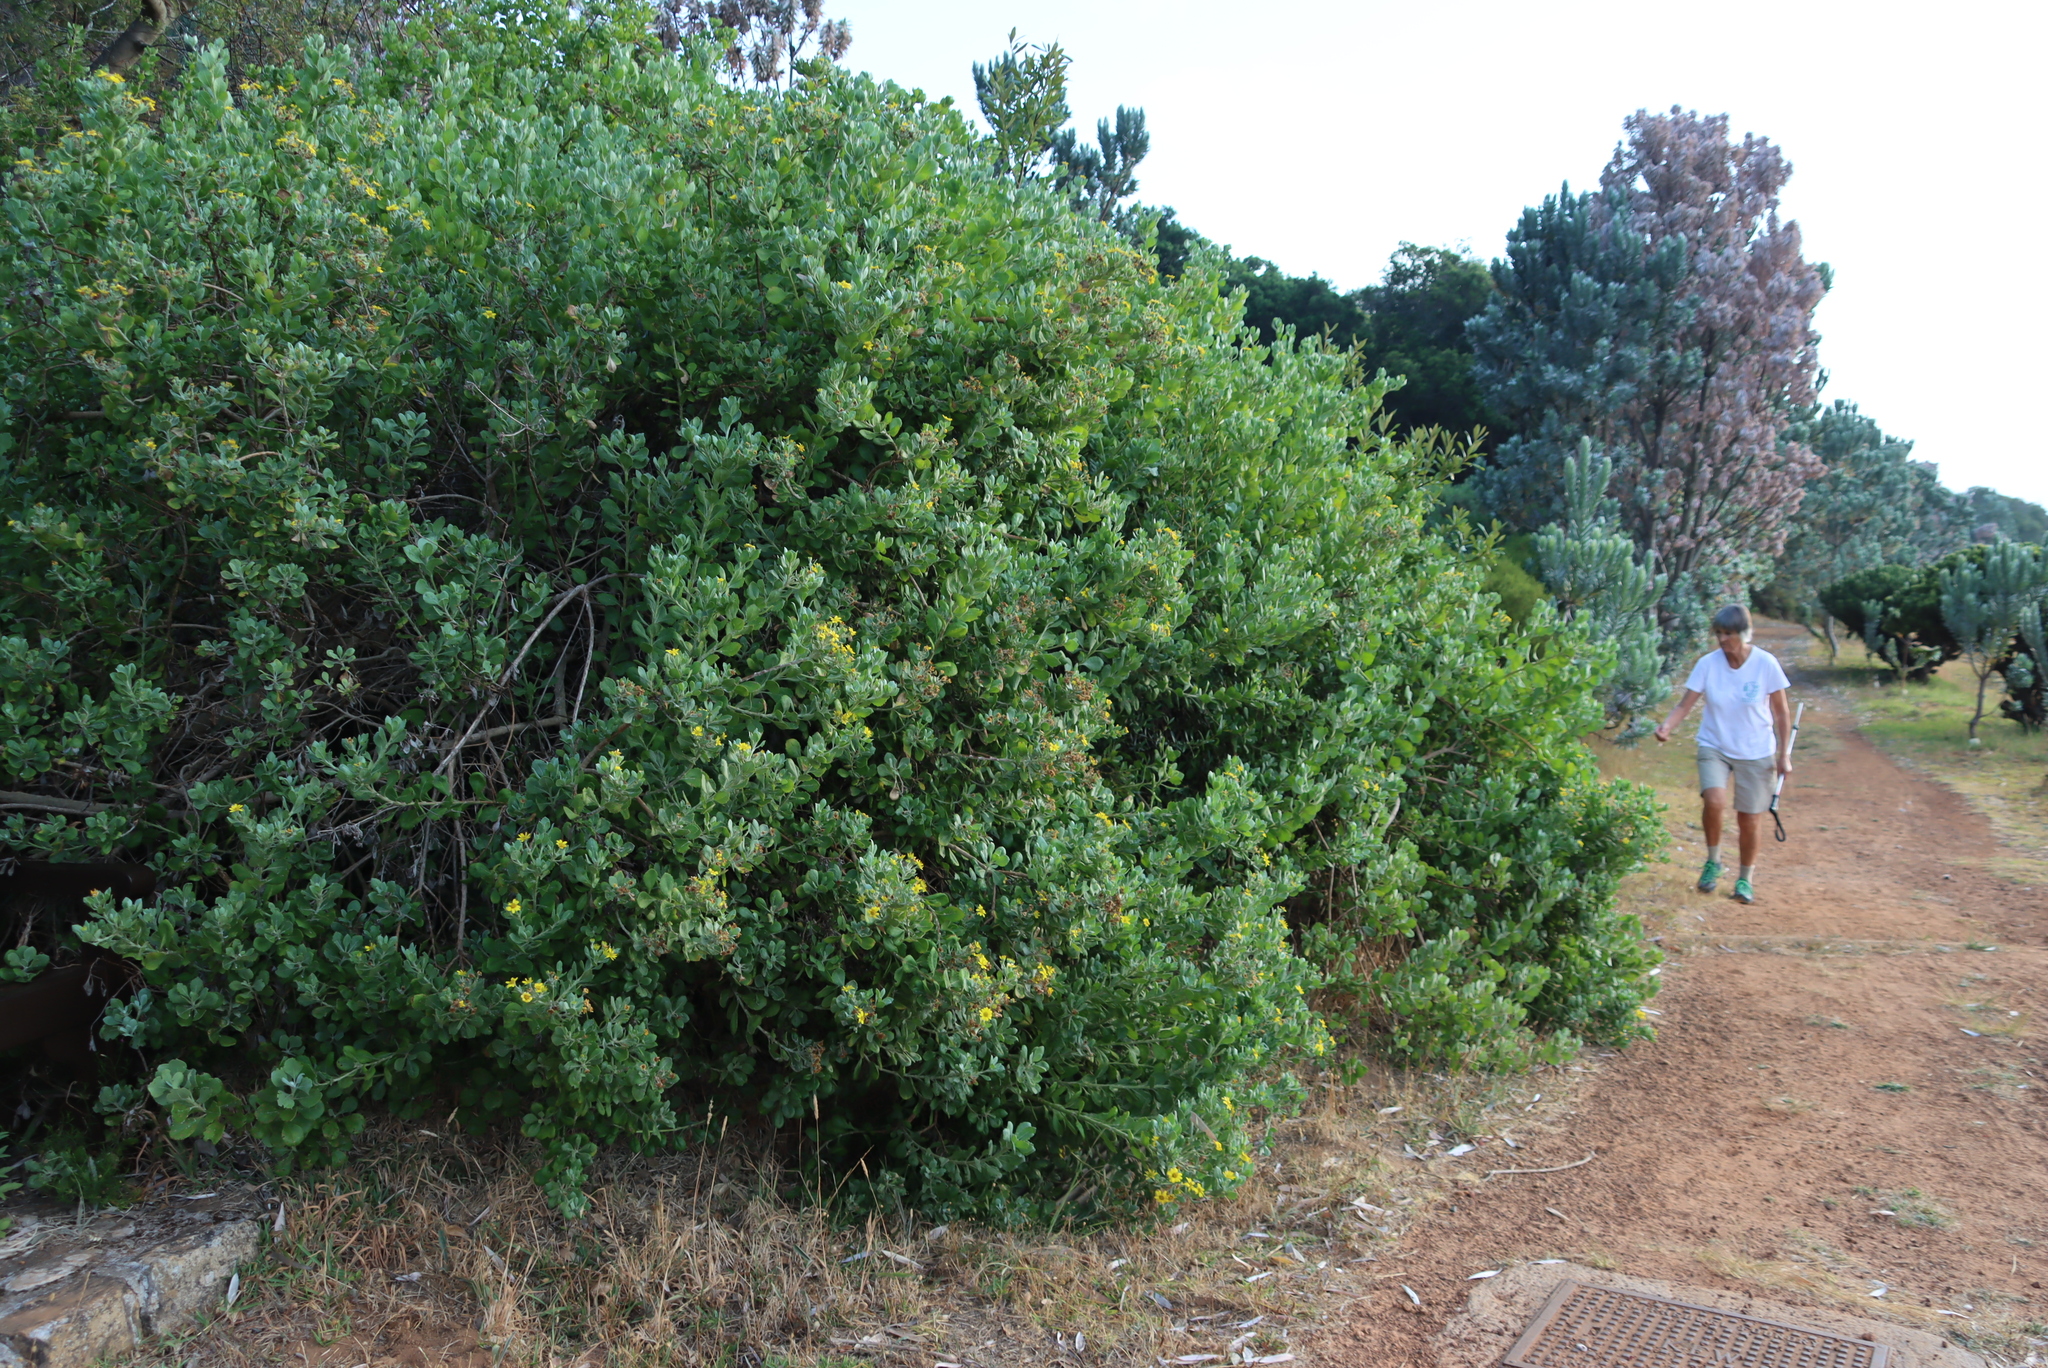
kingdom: Plantae
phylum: Tracheophyta
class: Magnoliopsida
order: Asterales
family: Asteraceae
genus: Osteospermum
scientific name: Osteospermum moniliferum
